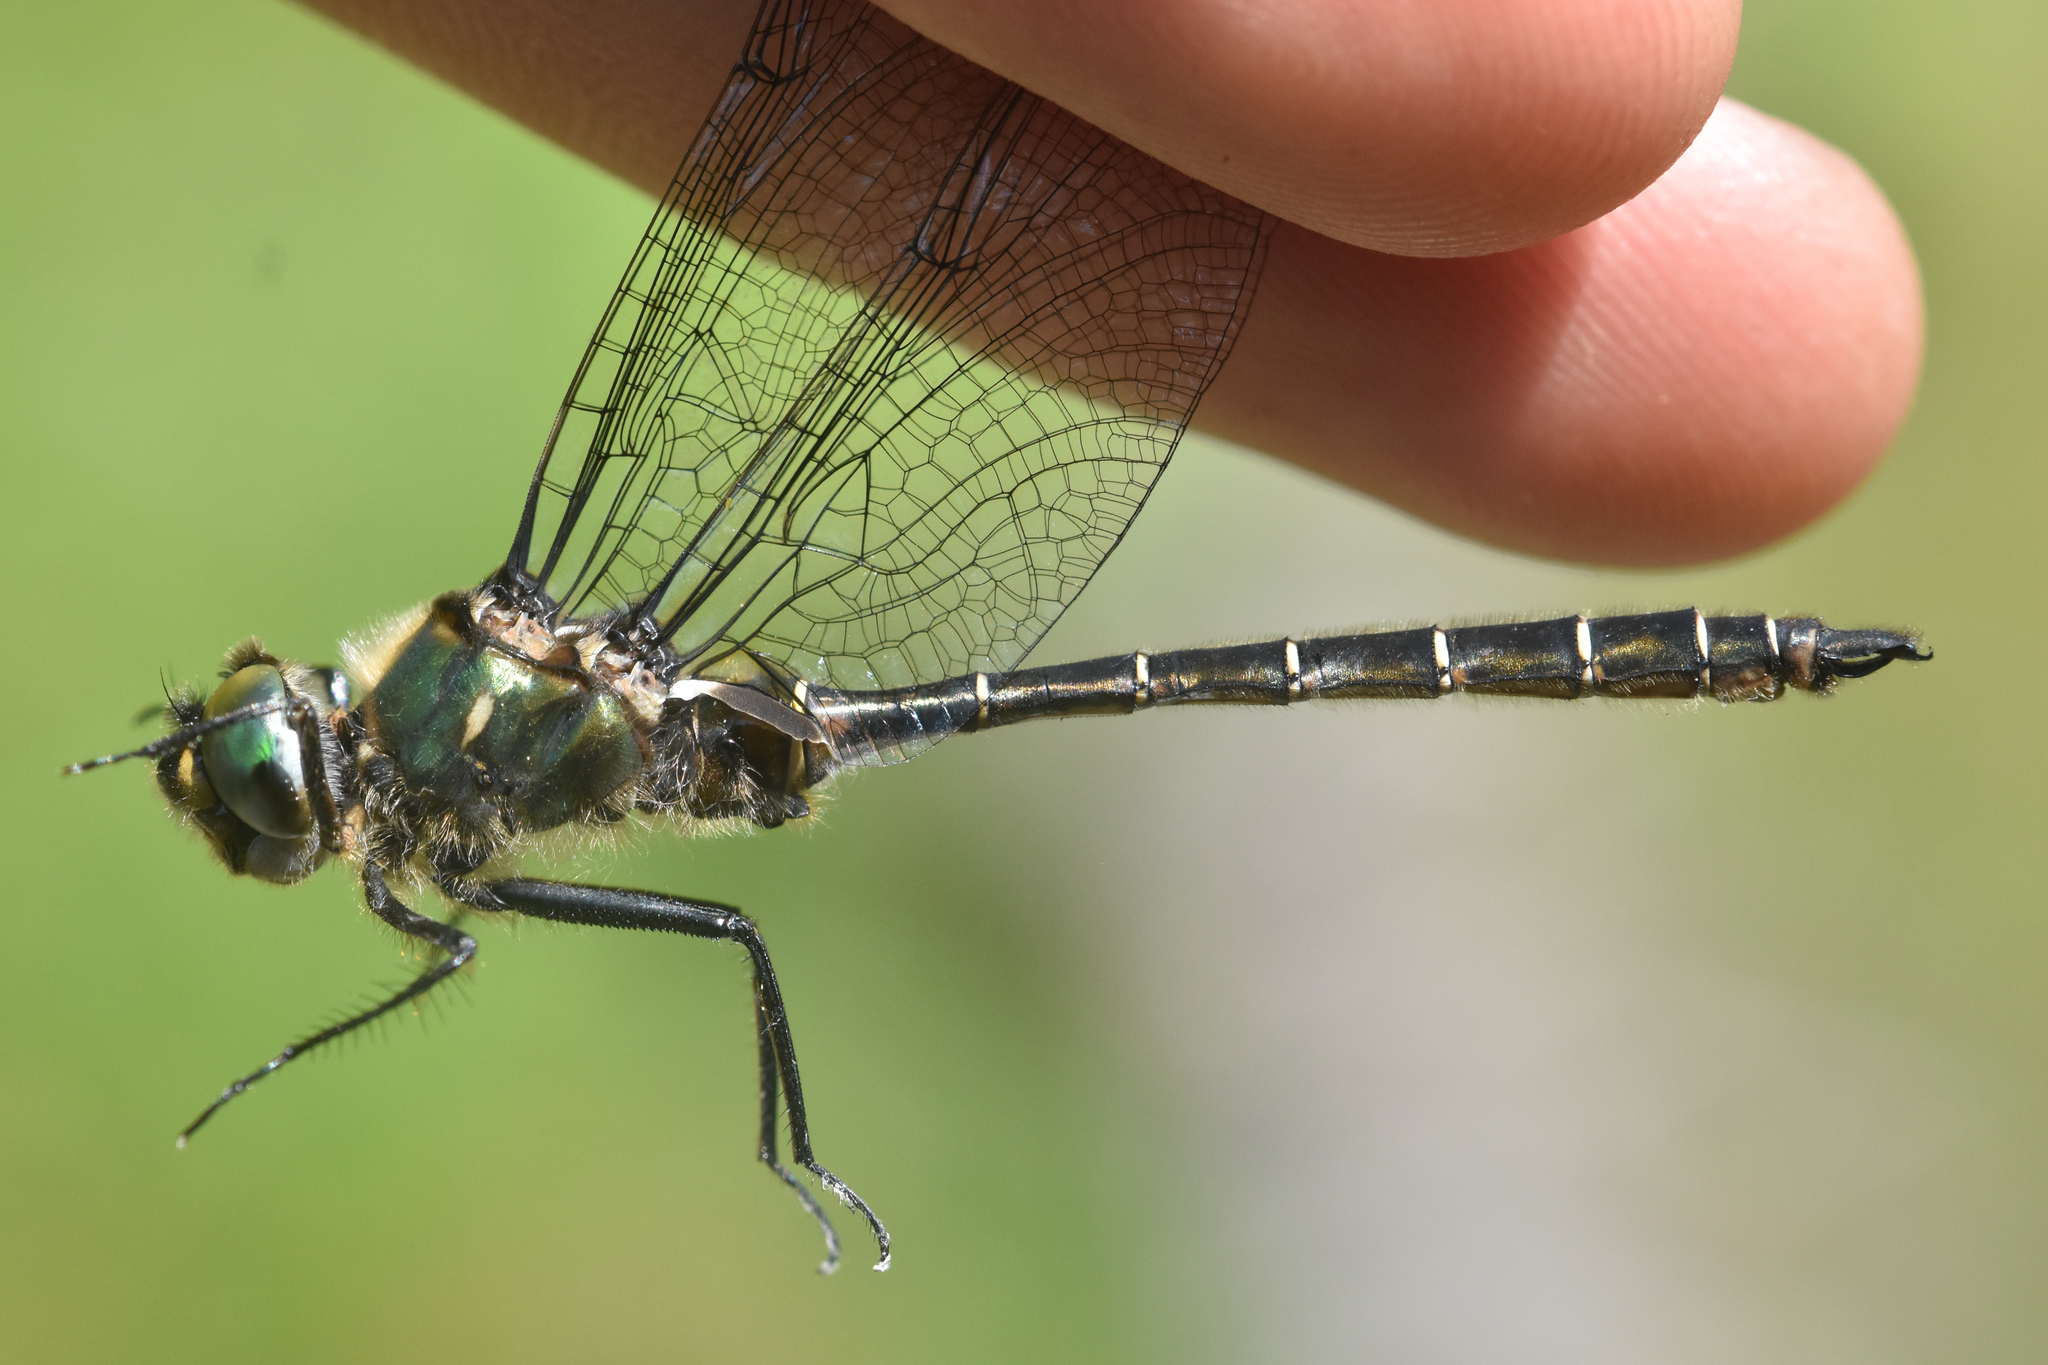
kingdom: Animalia
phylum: Arthropoda
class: Insecta
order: Odonata
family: Corduliidae
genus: Somatochlora
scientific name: Somatochlora albicincta
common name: Ringed emerald
